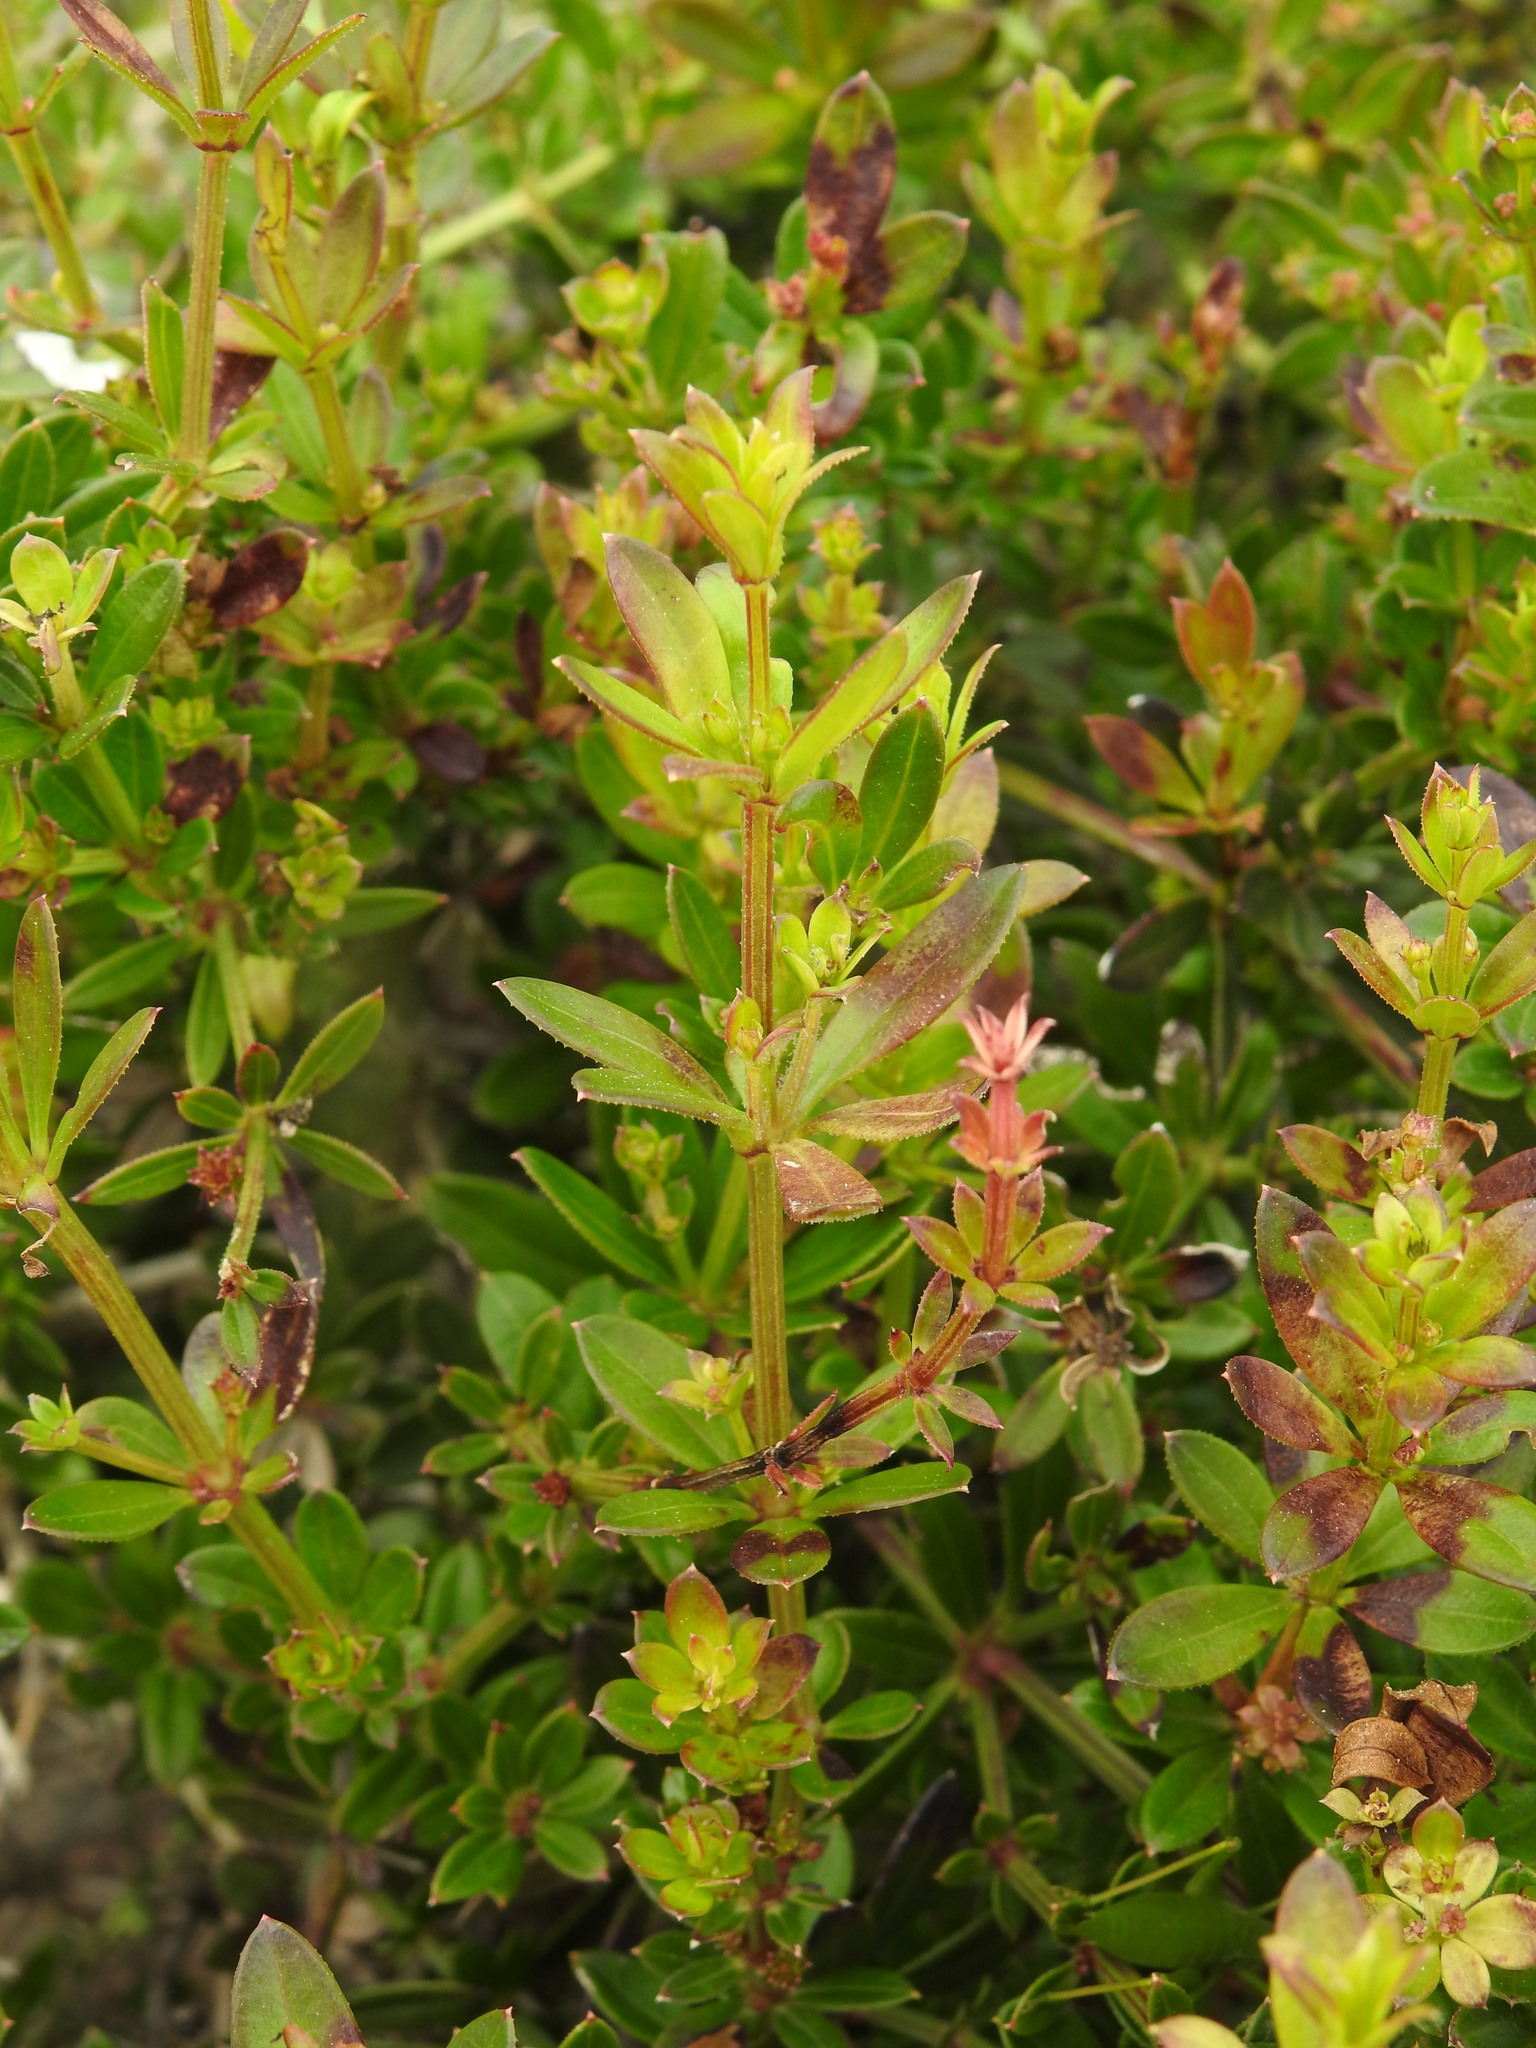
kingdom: Plantae
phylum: Tracheophyta
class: Magnoliopsida
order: Gentianales
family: Rubiaceae
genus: Rubia
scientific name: Rubia peregrina
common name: Wild madder
